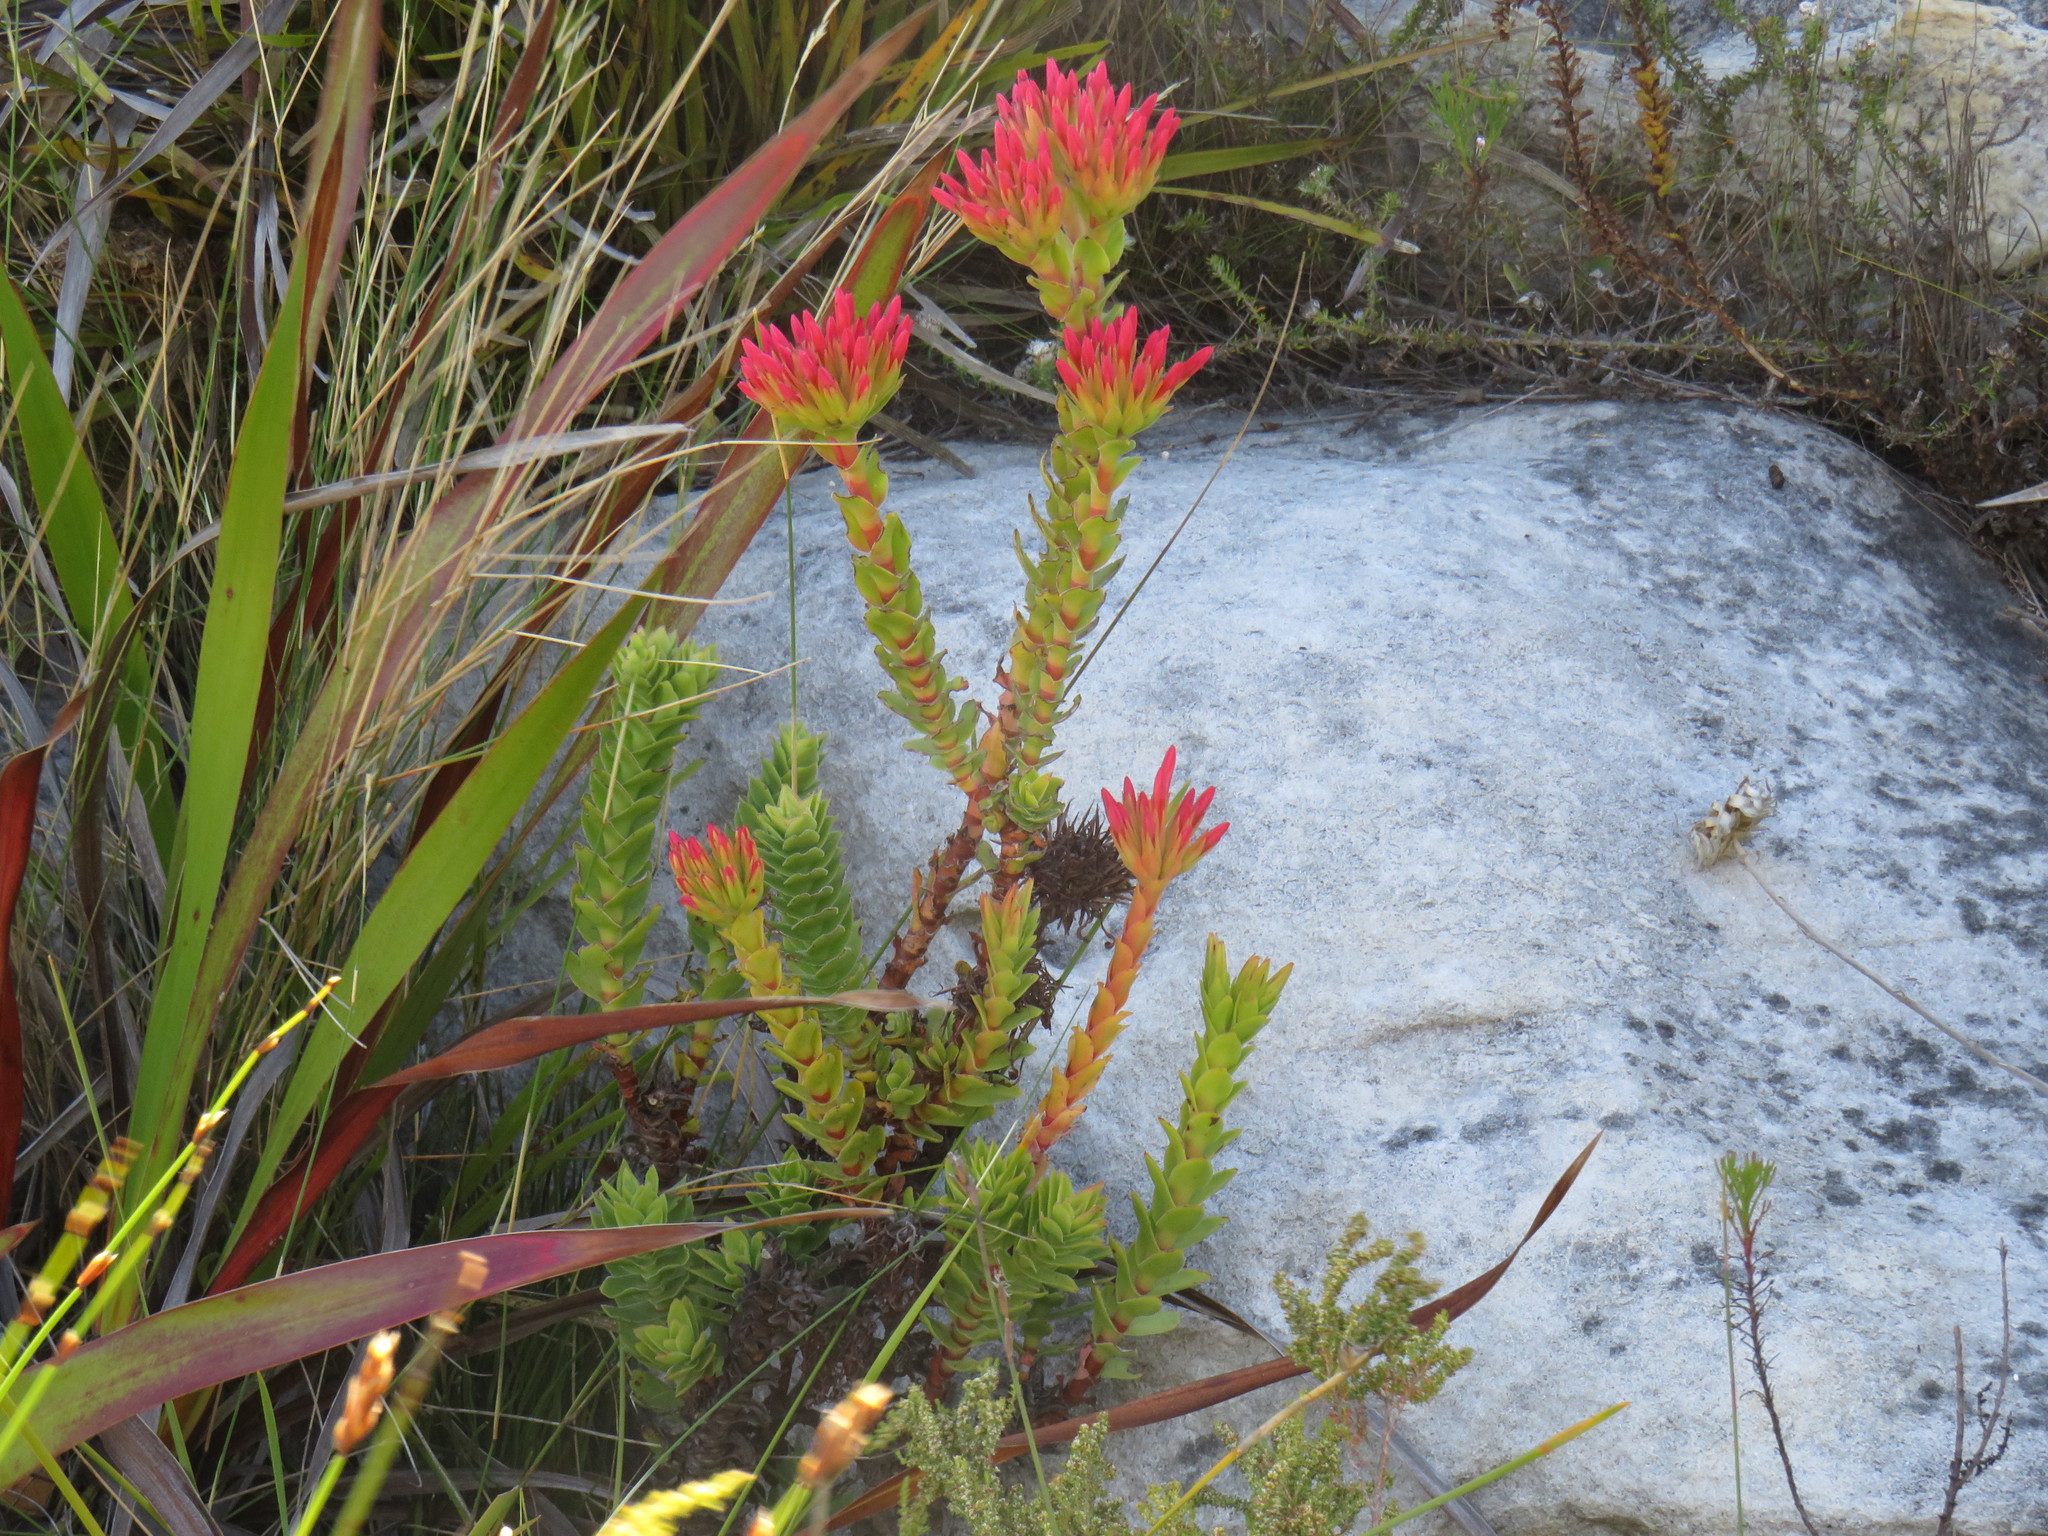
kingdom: Plantae
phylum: Tracheophyta
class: Magnoliopsida
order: Saxifragales
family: Crassulaceae
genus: Crassula
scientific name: Crassula coccinea
